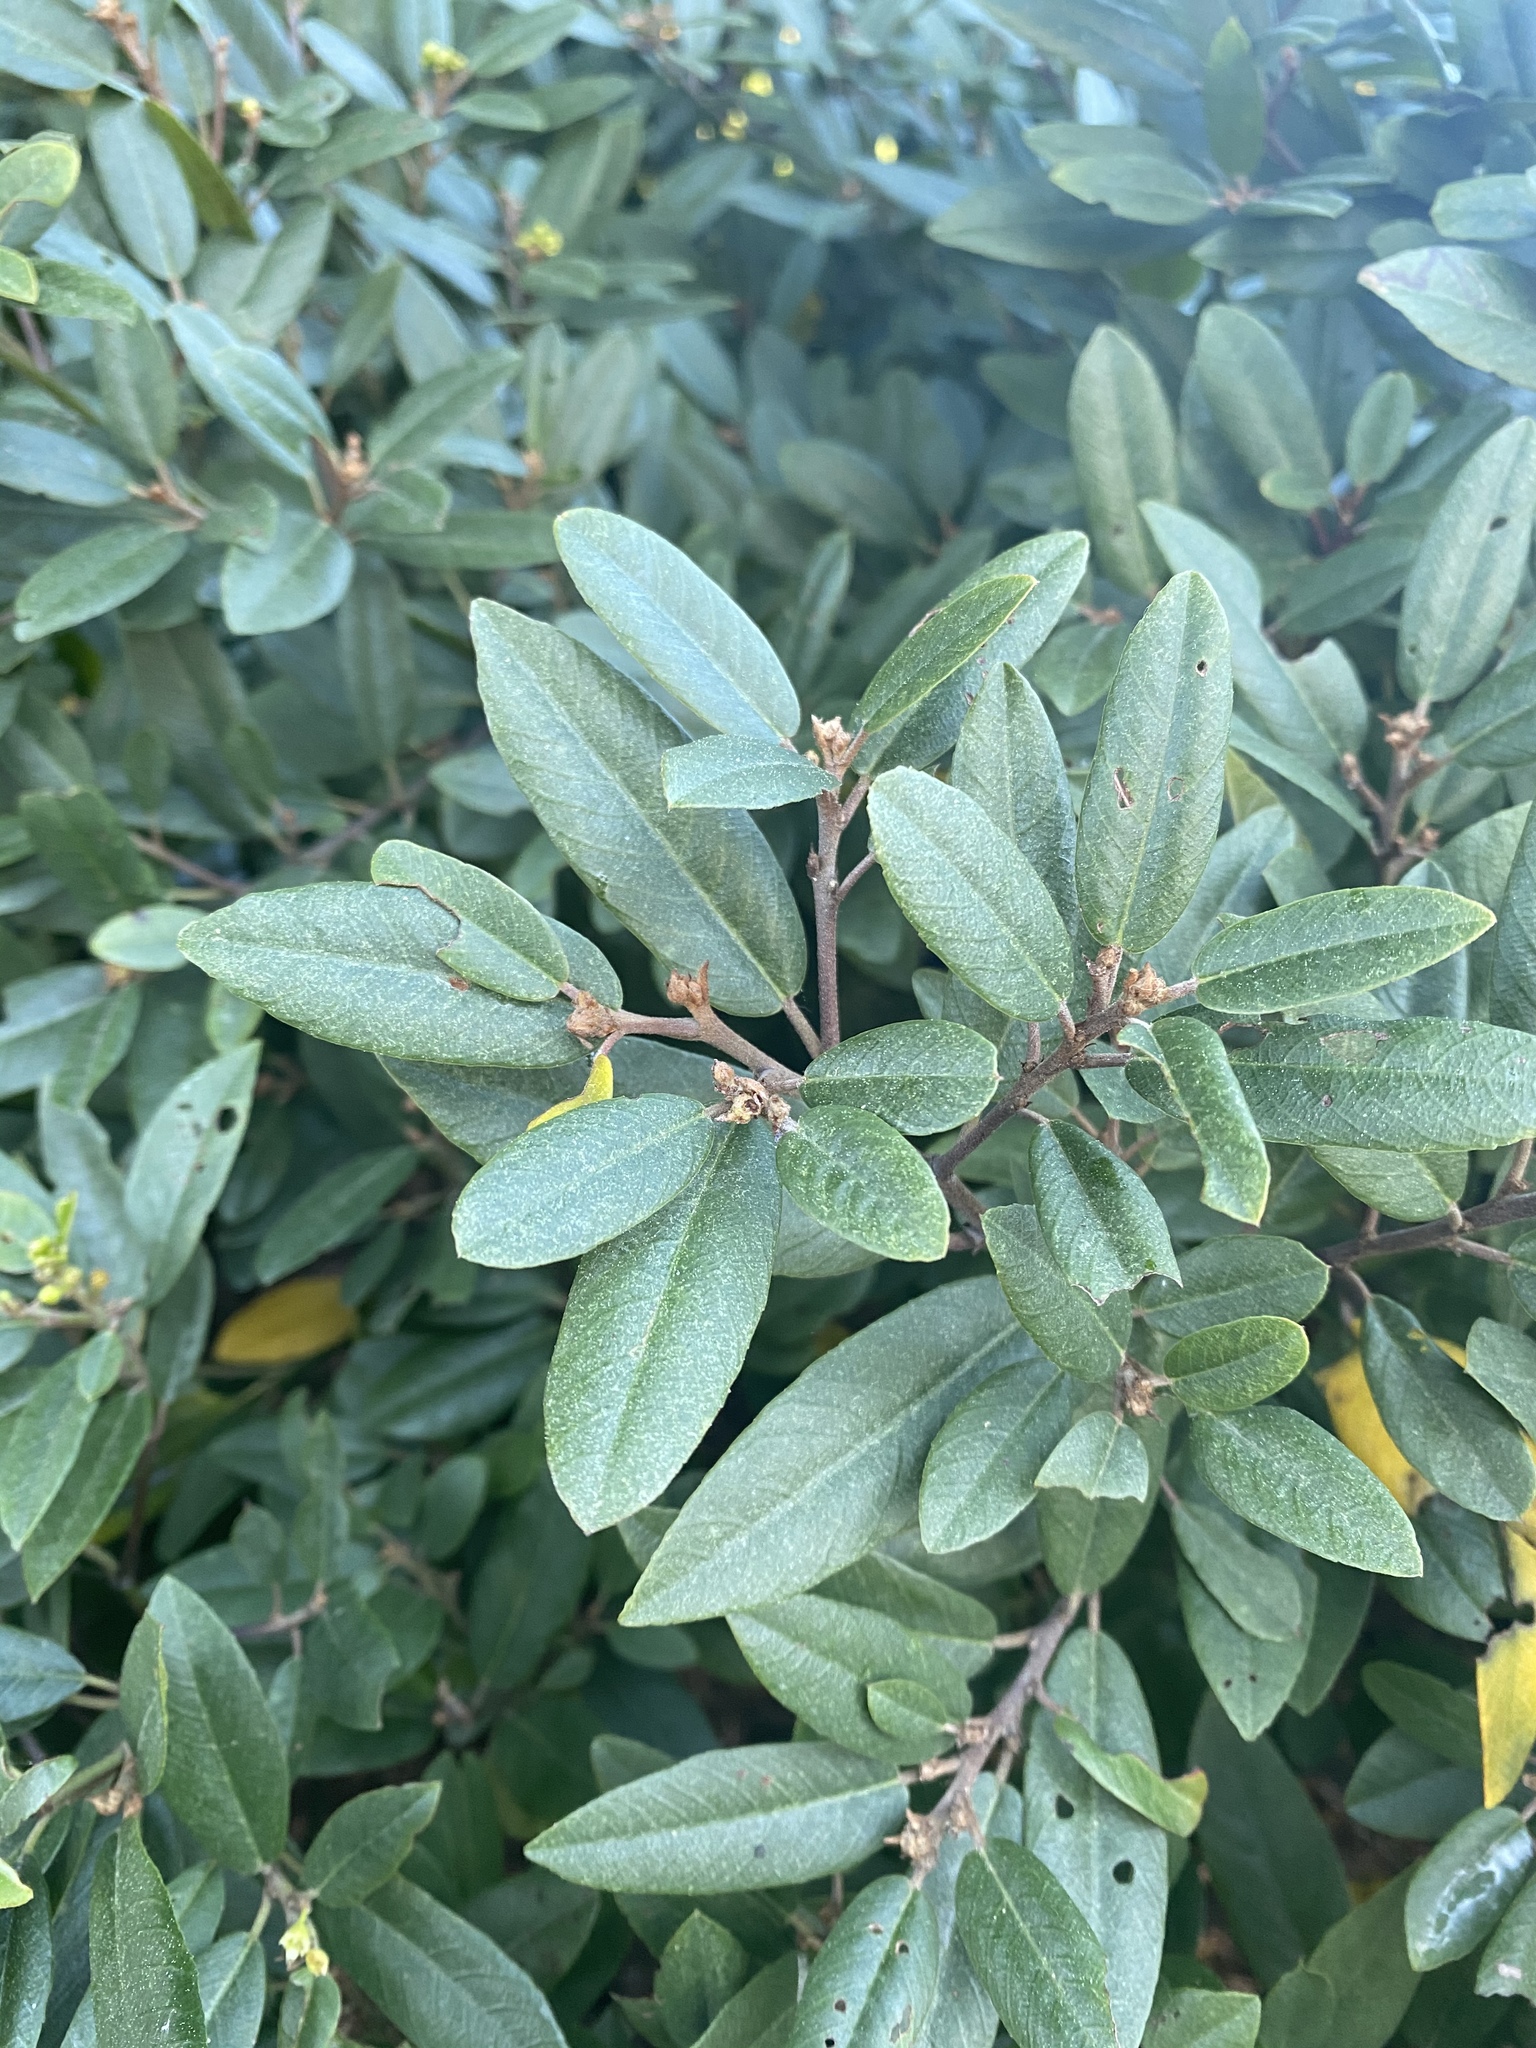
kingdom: Plantae
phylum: Tracheophyta
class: Magnoliopsida
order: Rosales
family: Rhamnaceae
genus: Frangula
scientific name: Frangula californica
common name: California buckthorn
